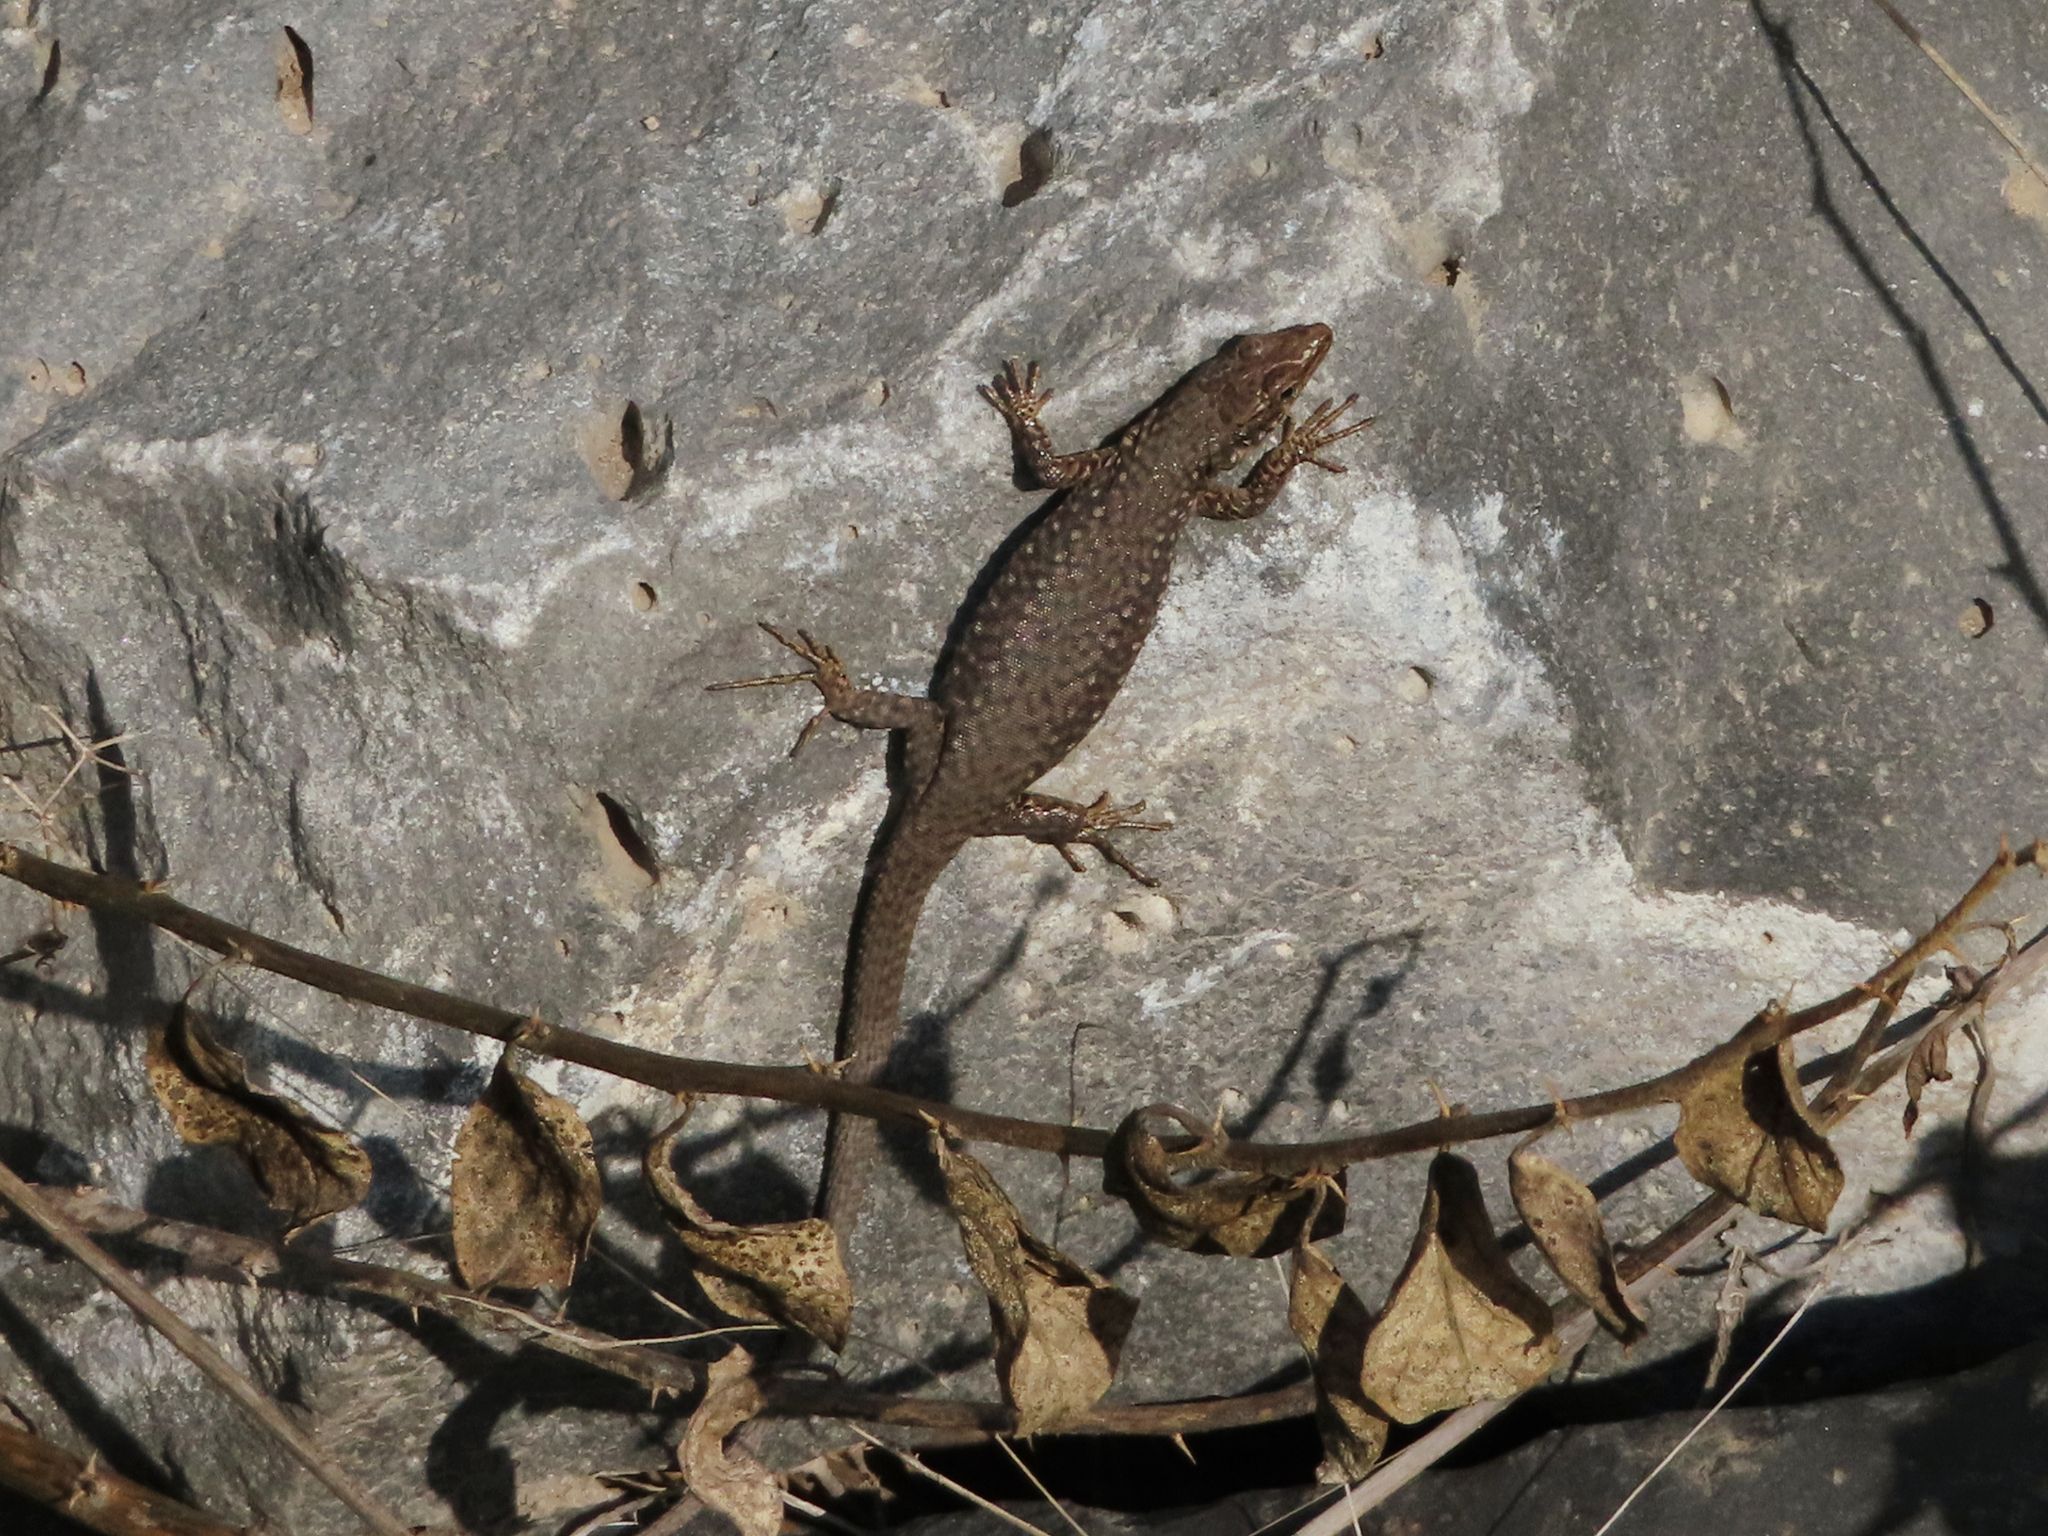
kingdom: Animalia
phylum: Chordata
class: Squamata
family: Lacertidae
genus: Darevskia
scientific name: Darevskia
